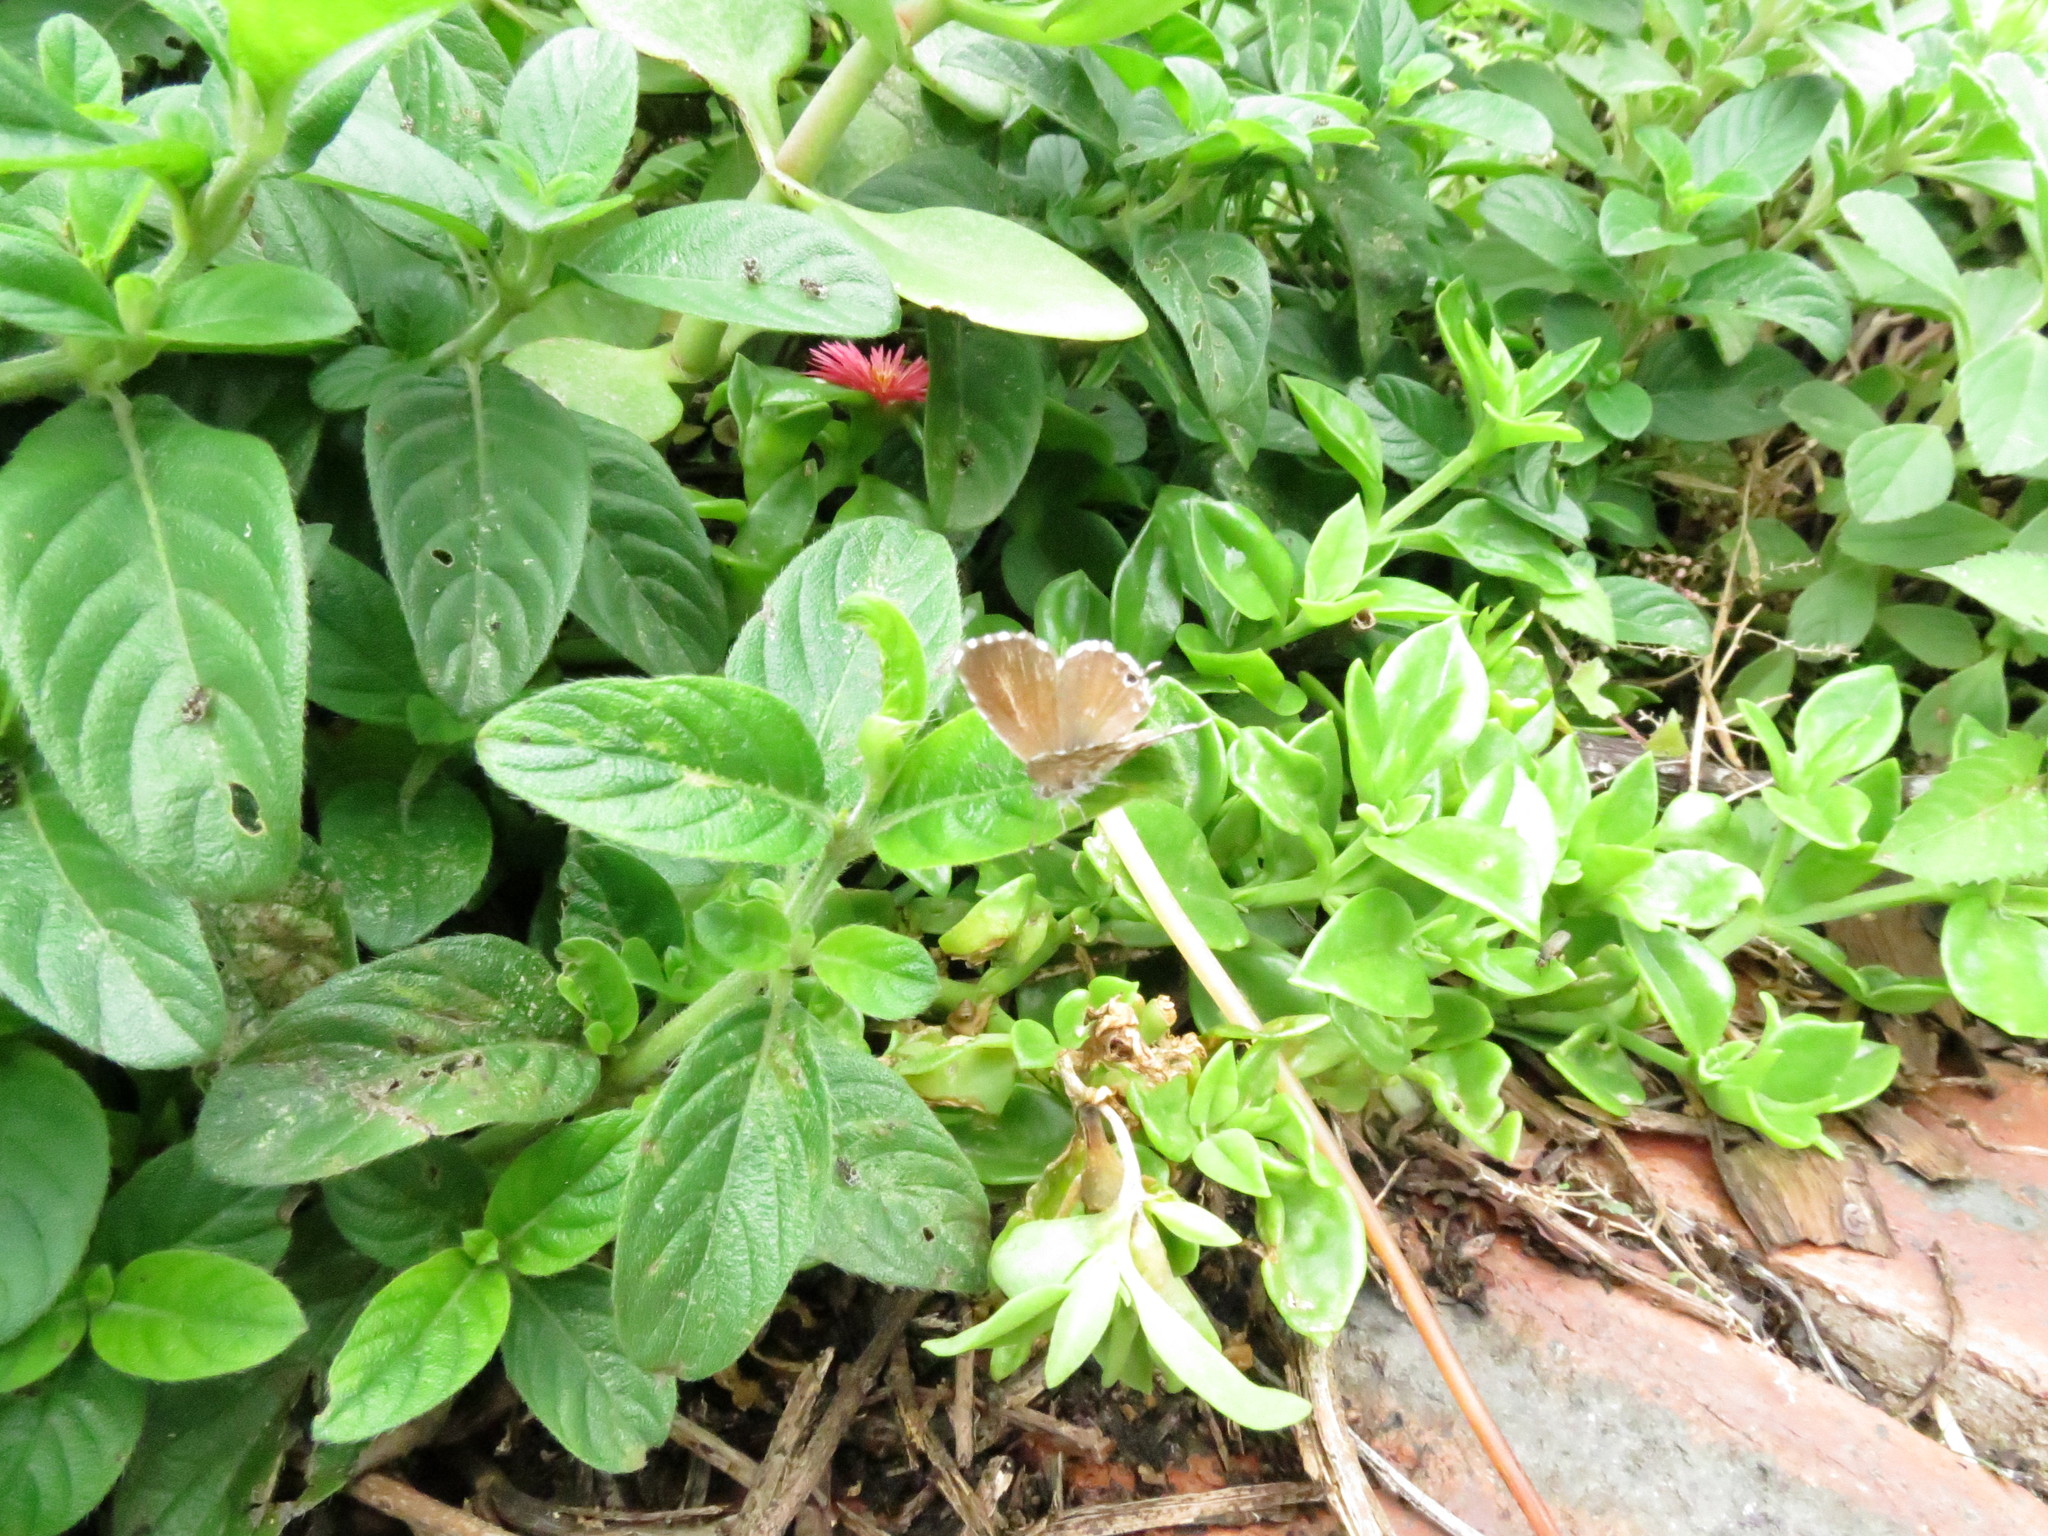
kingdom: Animalia
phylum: Arthropoda
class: Insecta
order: Lepidoptera
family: Lycaenidae
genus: Cacyreus
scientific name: Cacyreus marshalli
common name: Geranium bronze
